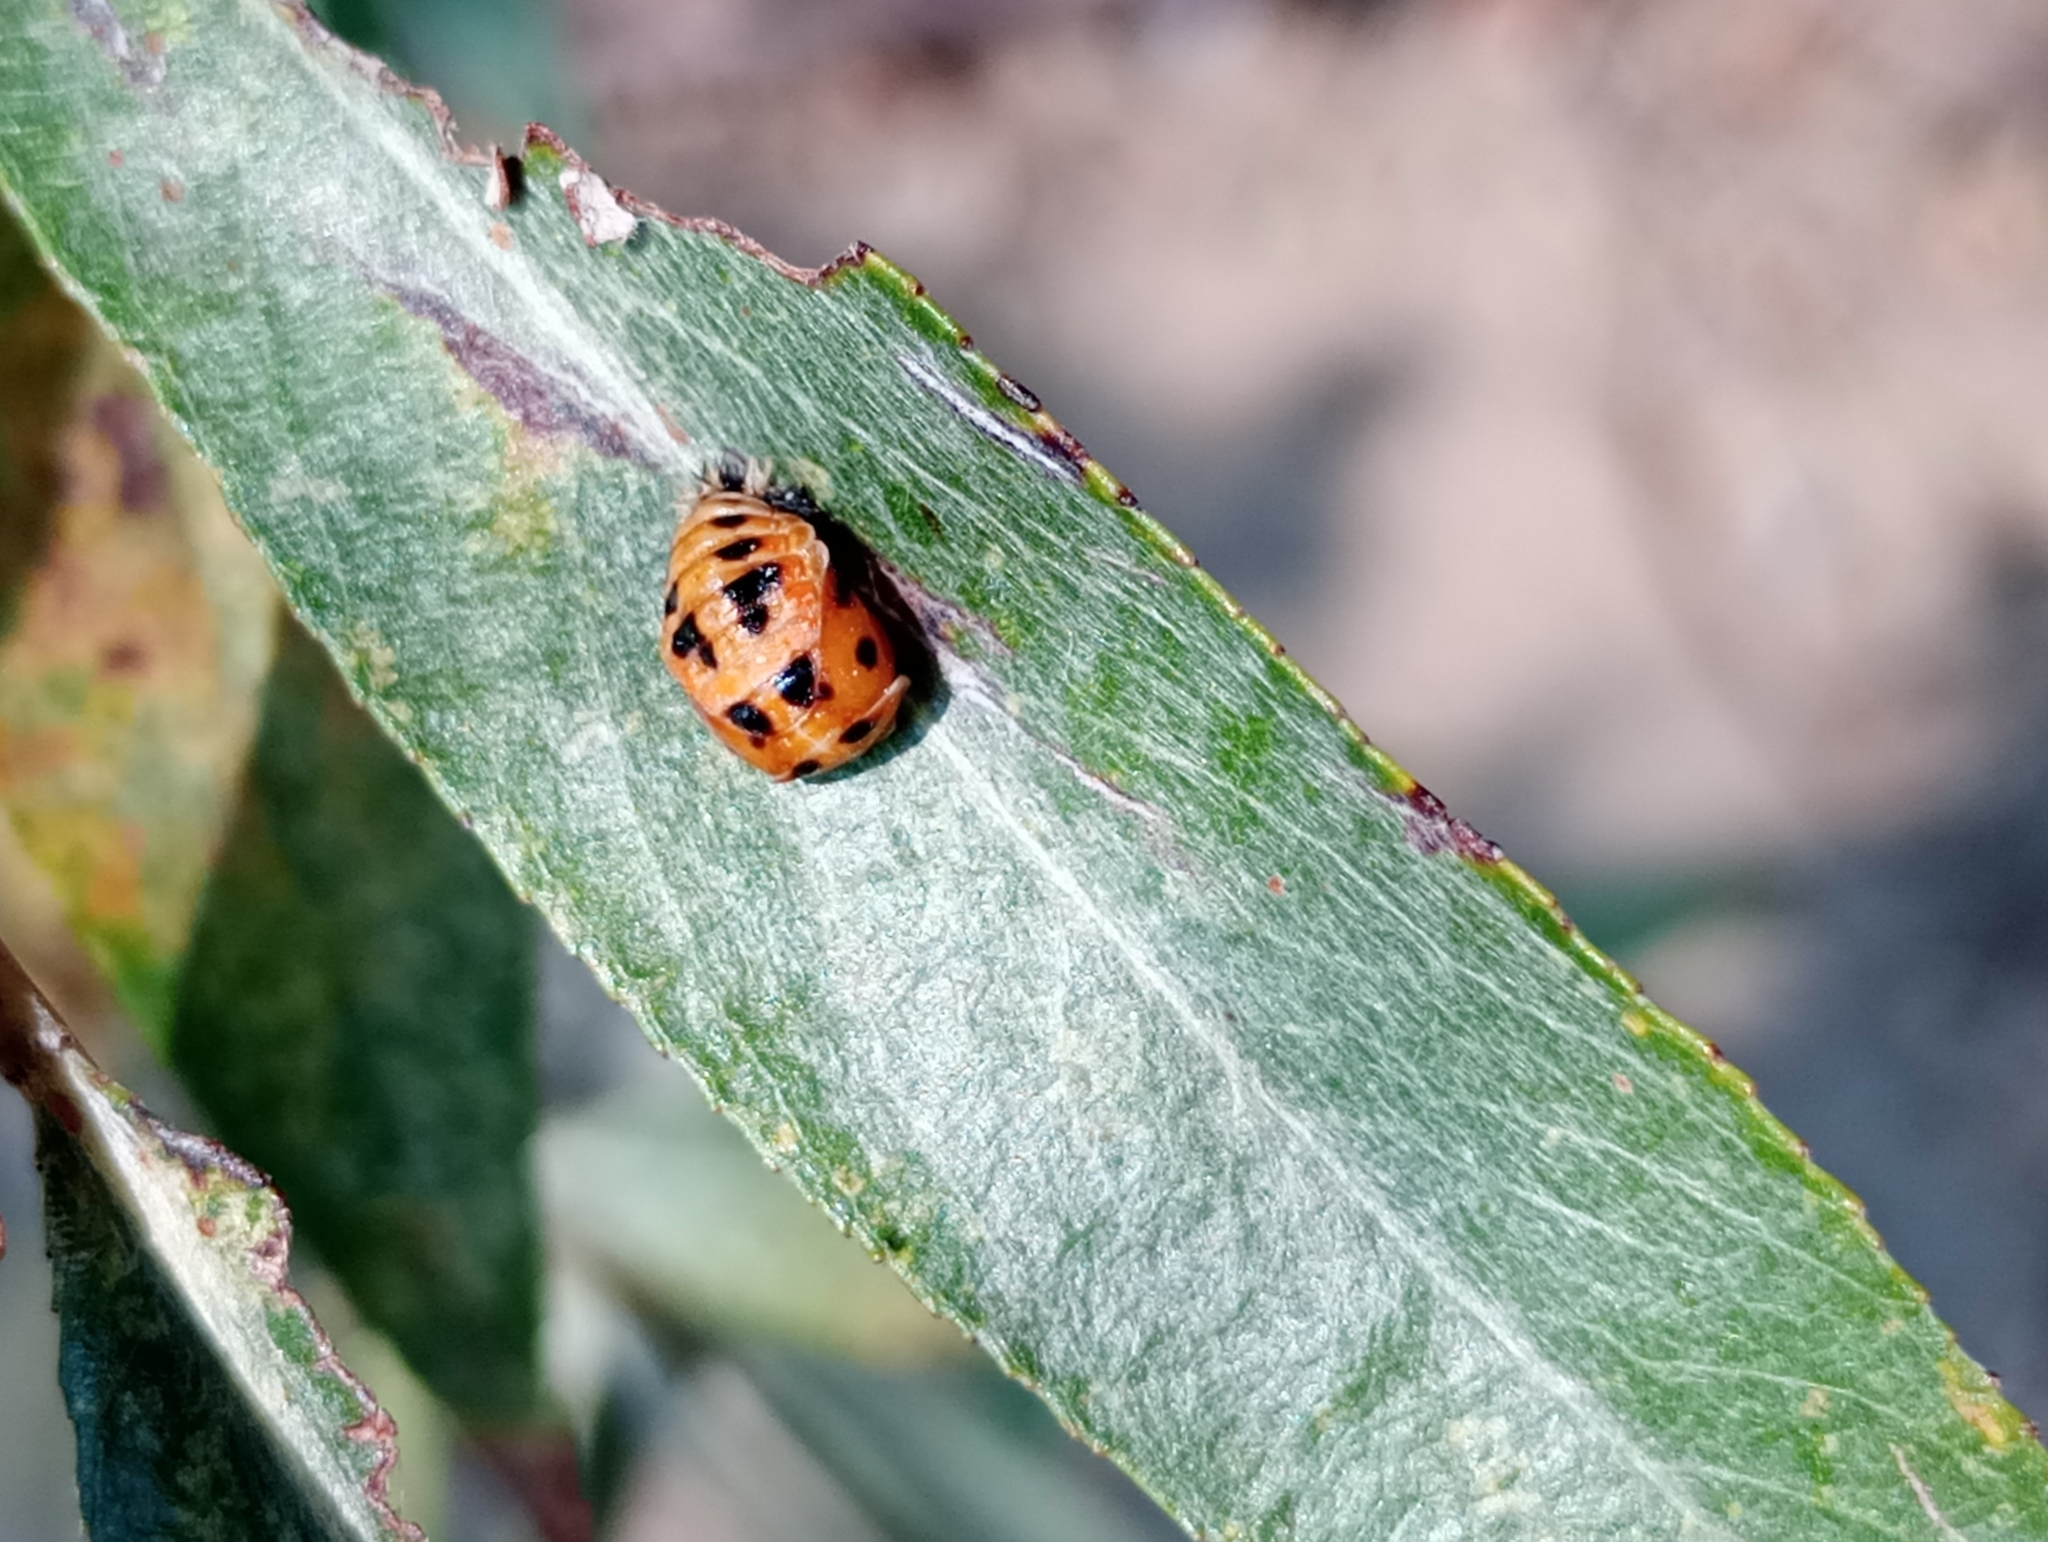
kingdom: Animalia
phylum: Arthropoda
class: Insecta
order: Coleoptera
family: Coccinellidae
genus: Harmonia
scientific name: Harmonia axyridis
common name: Harlequin ladybird
